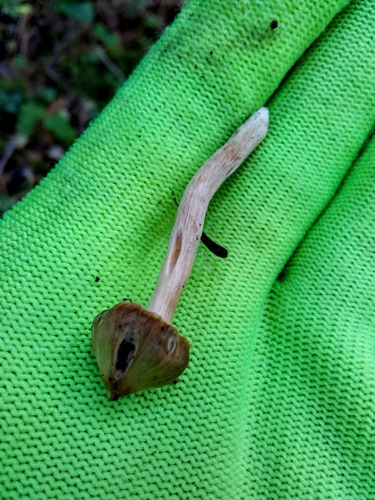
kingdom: Fungi
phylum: Basidiomycota
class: Agaricomycetes
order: Agaricales
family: Cortinariaceae
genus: Cortinarius
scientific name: Cortinarius
